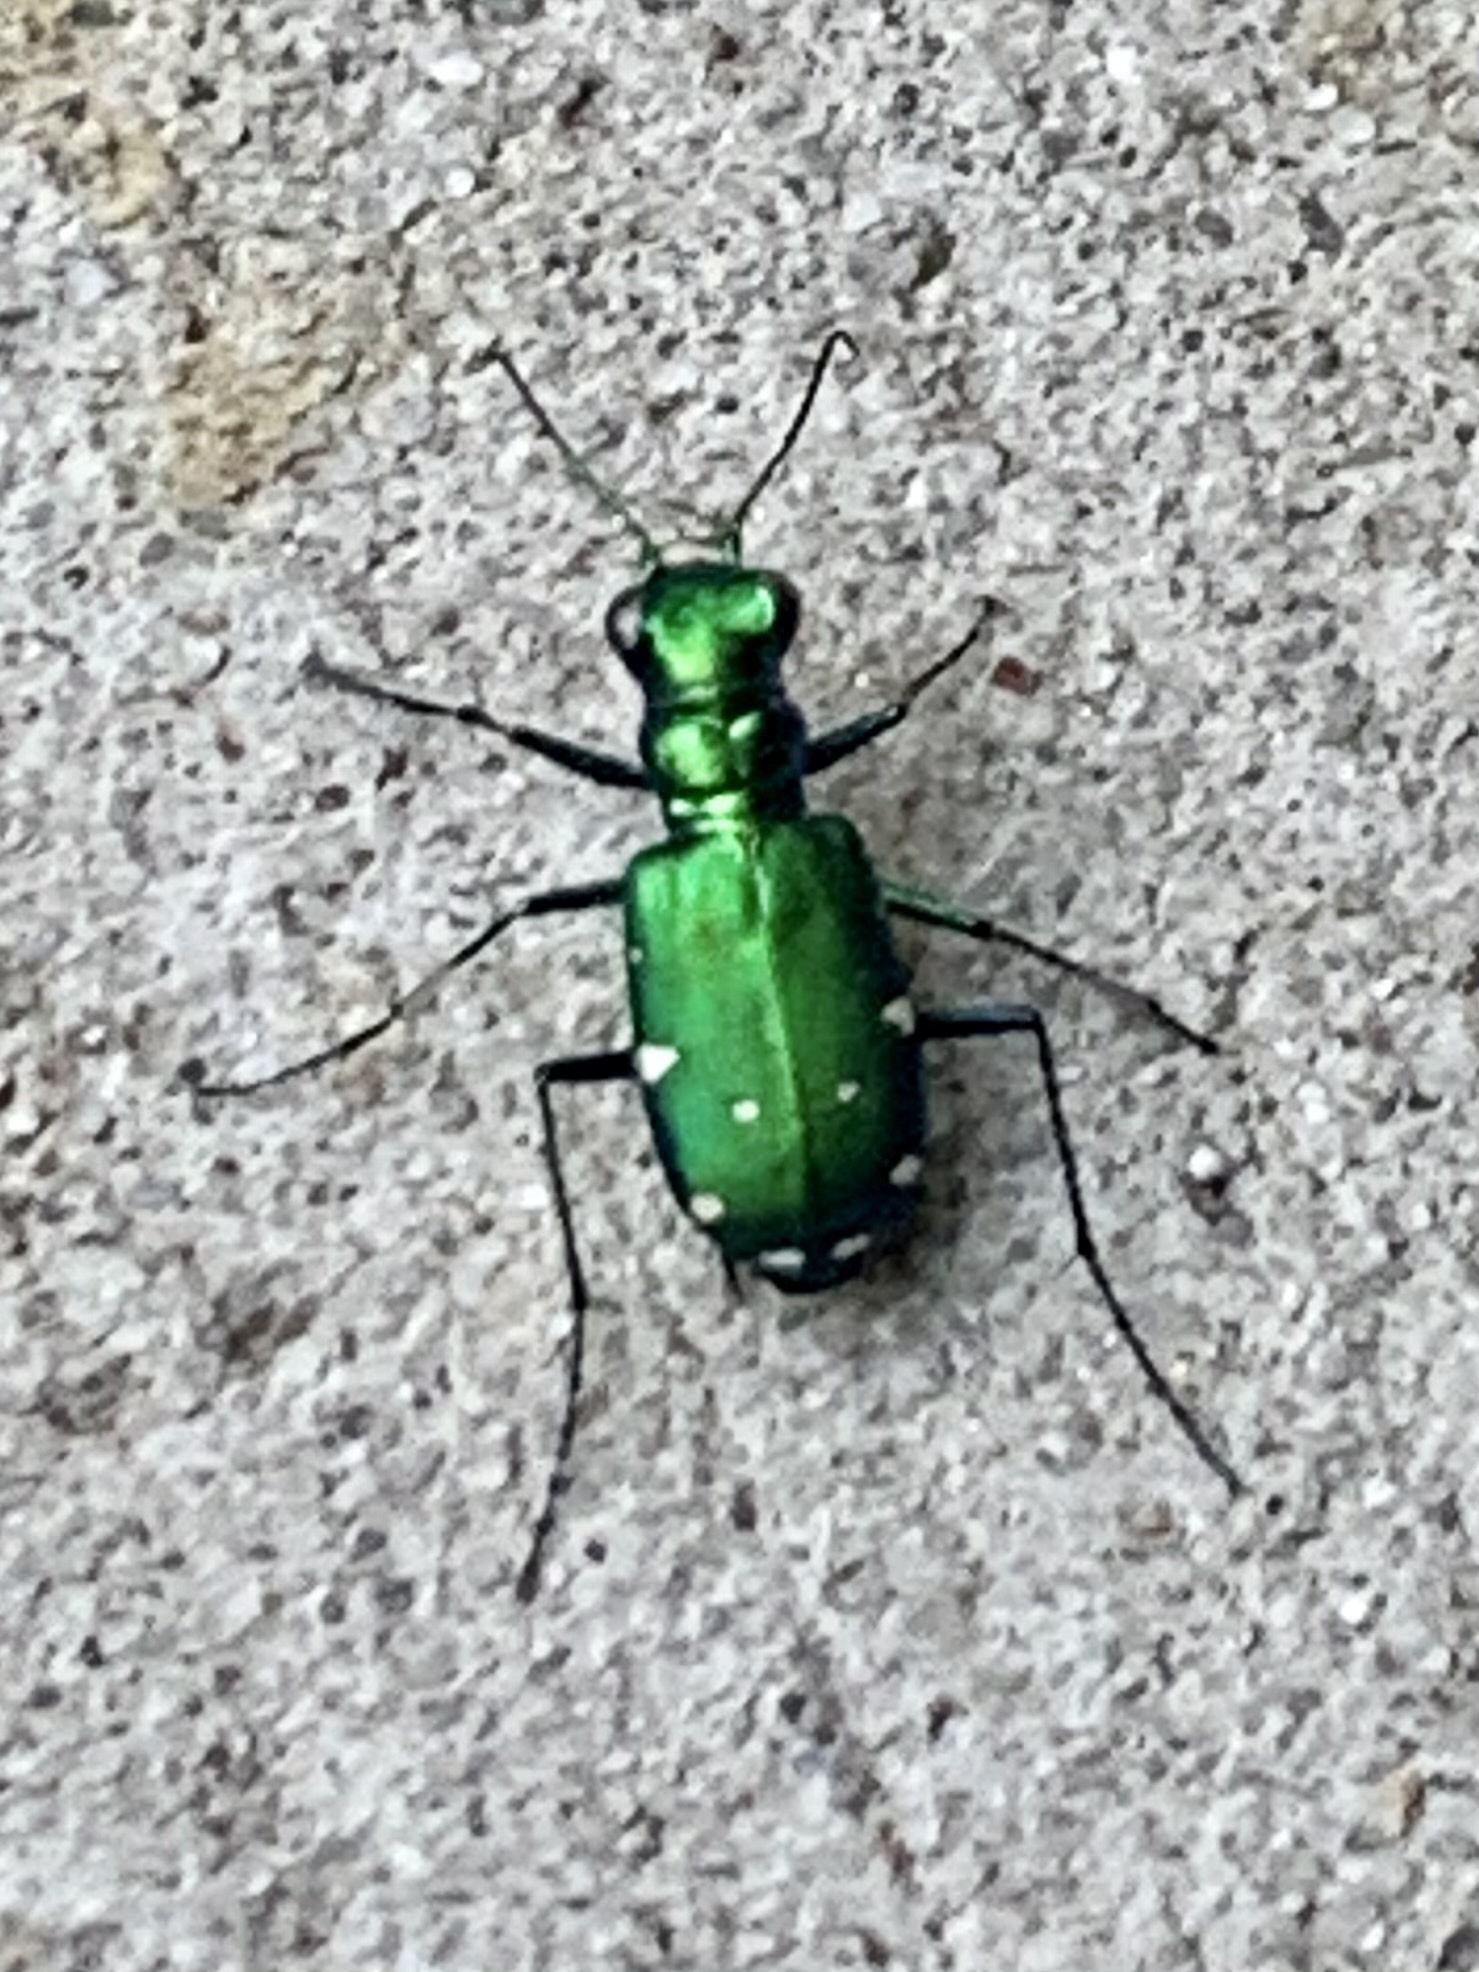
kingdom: Animalia
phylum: Arthropoda
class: Insecta
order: Coleoptera
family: Carabidae
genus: Cicindela
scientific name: Cicindela sexguttata
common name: Six-spotted tiger beetle
